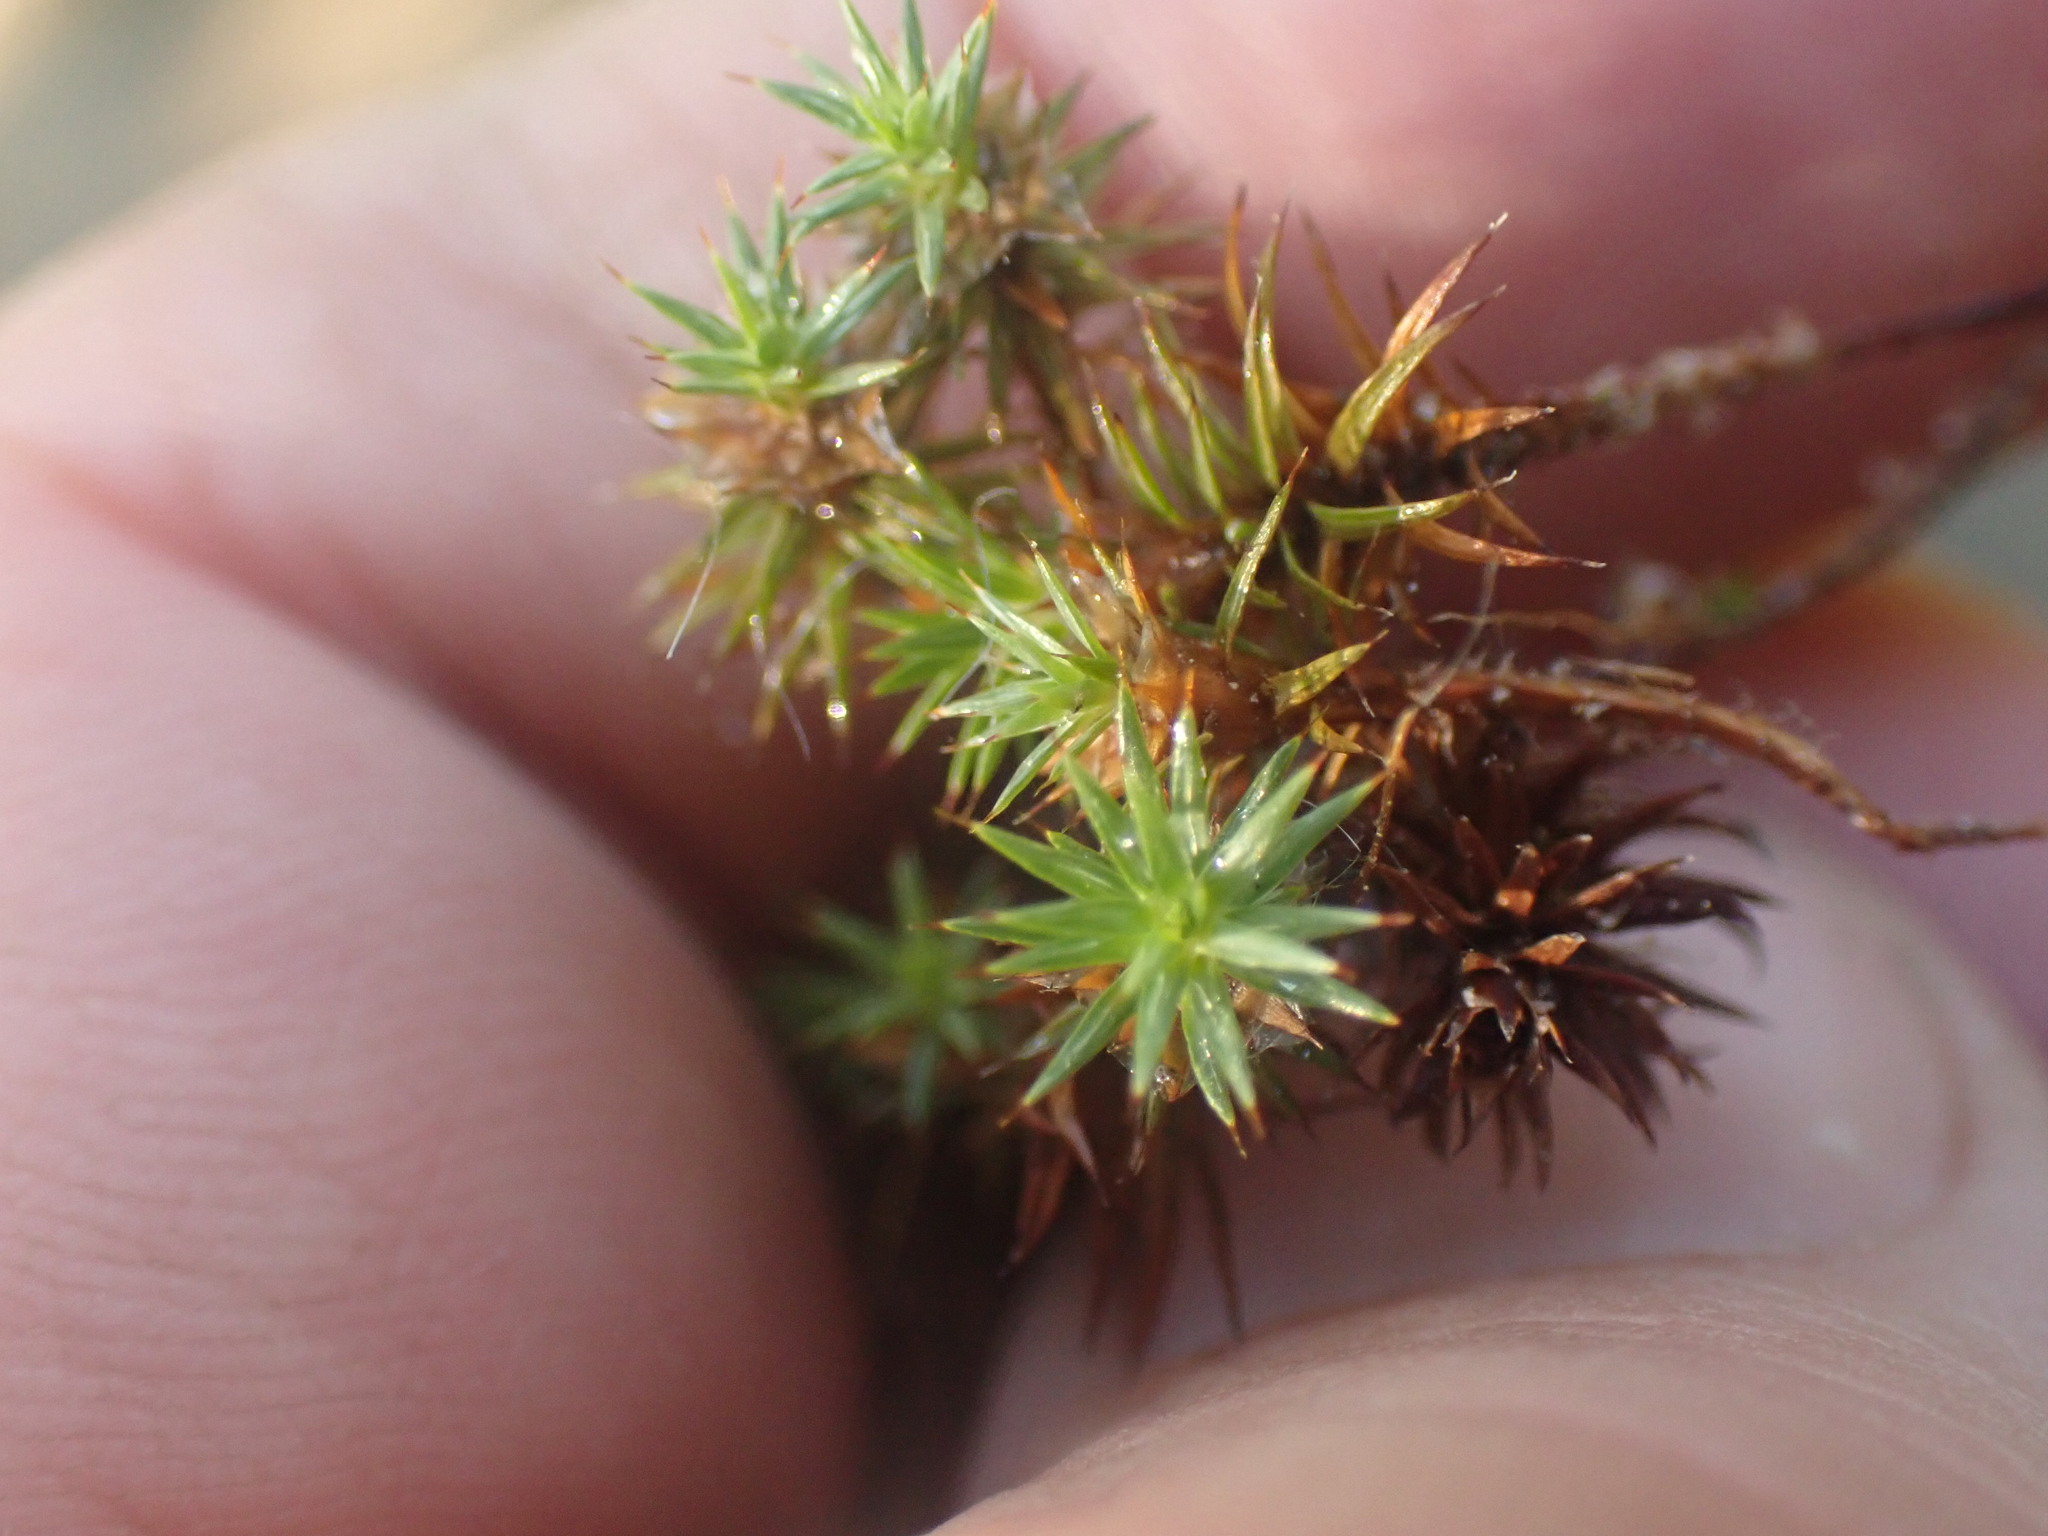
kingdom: Plantae
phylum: Bryophyta
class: Polytrichopsida
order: Polytrichales
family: Polytrichaceae
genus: Polytrichum
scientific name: Polytrichum juniperinum
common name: Juniper haircap moss
